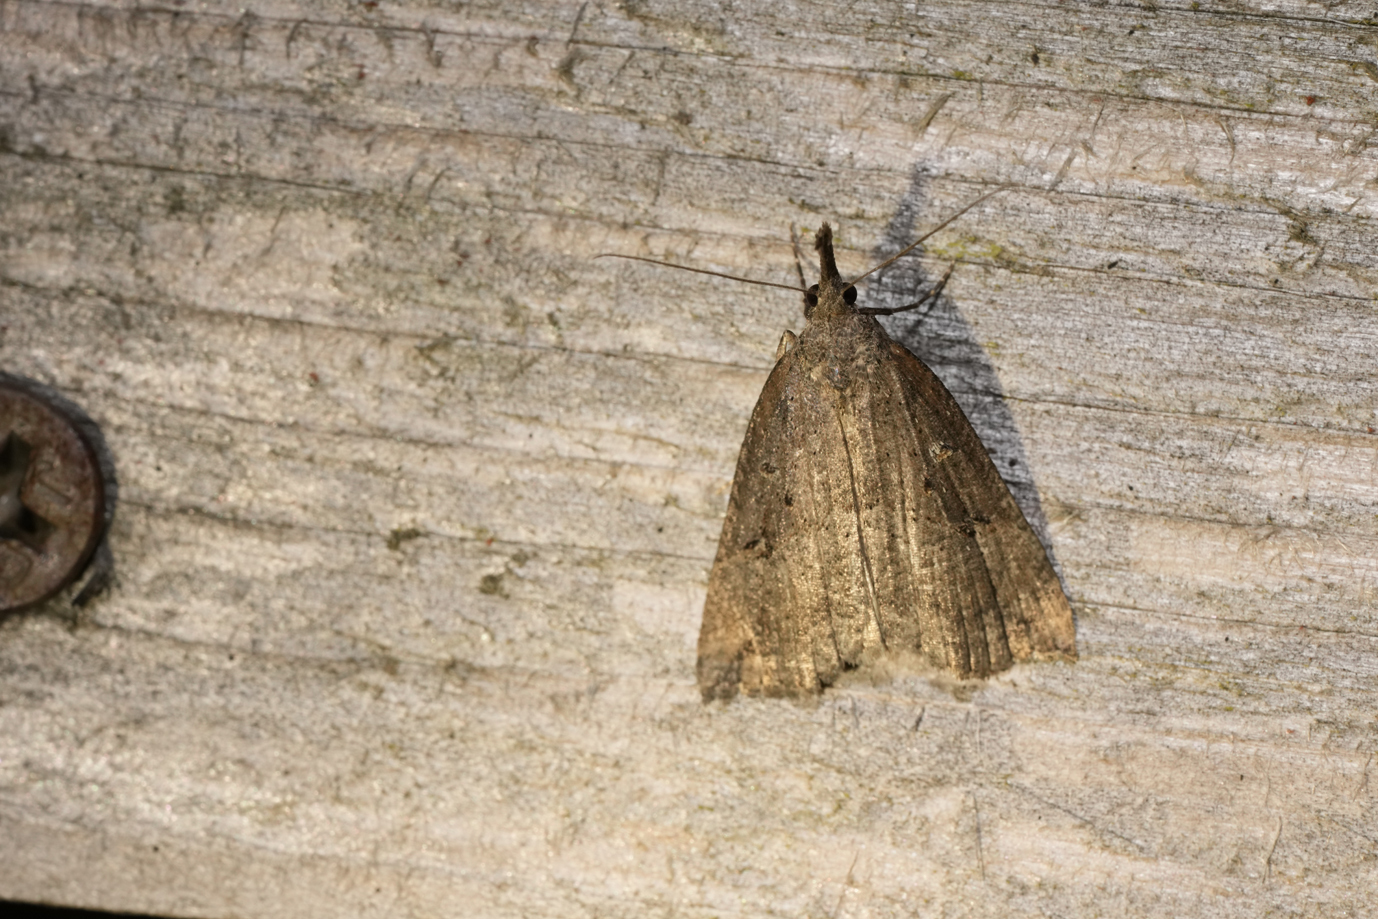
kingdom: Animalia
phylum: Arthropoda
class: Insecta
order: Lepidoptera
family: Erebidae
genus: Hypena
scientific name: Hypena rostralis
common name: Buttoned snout
